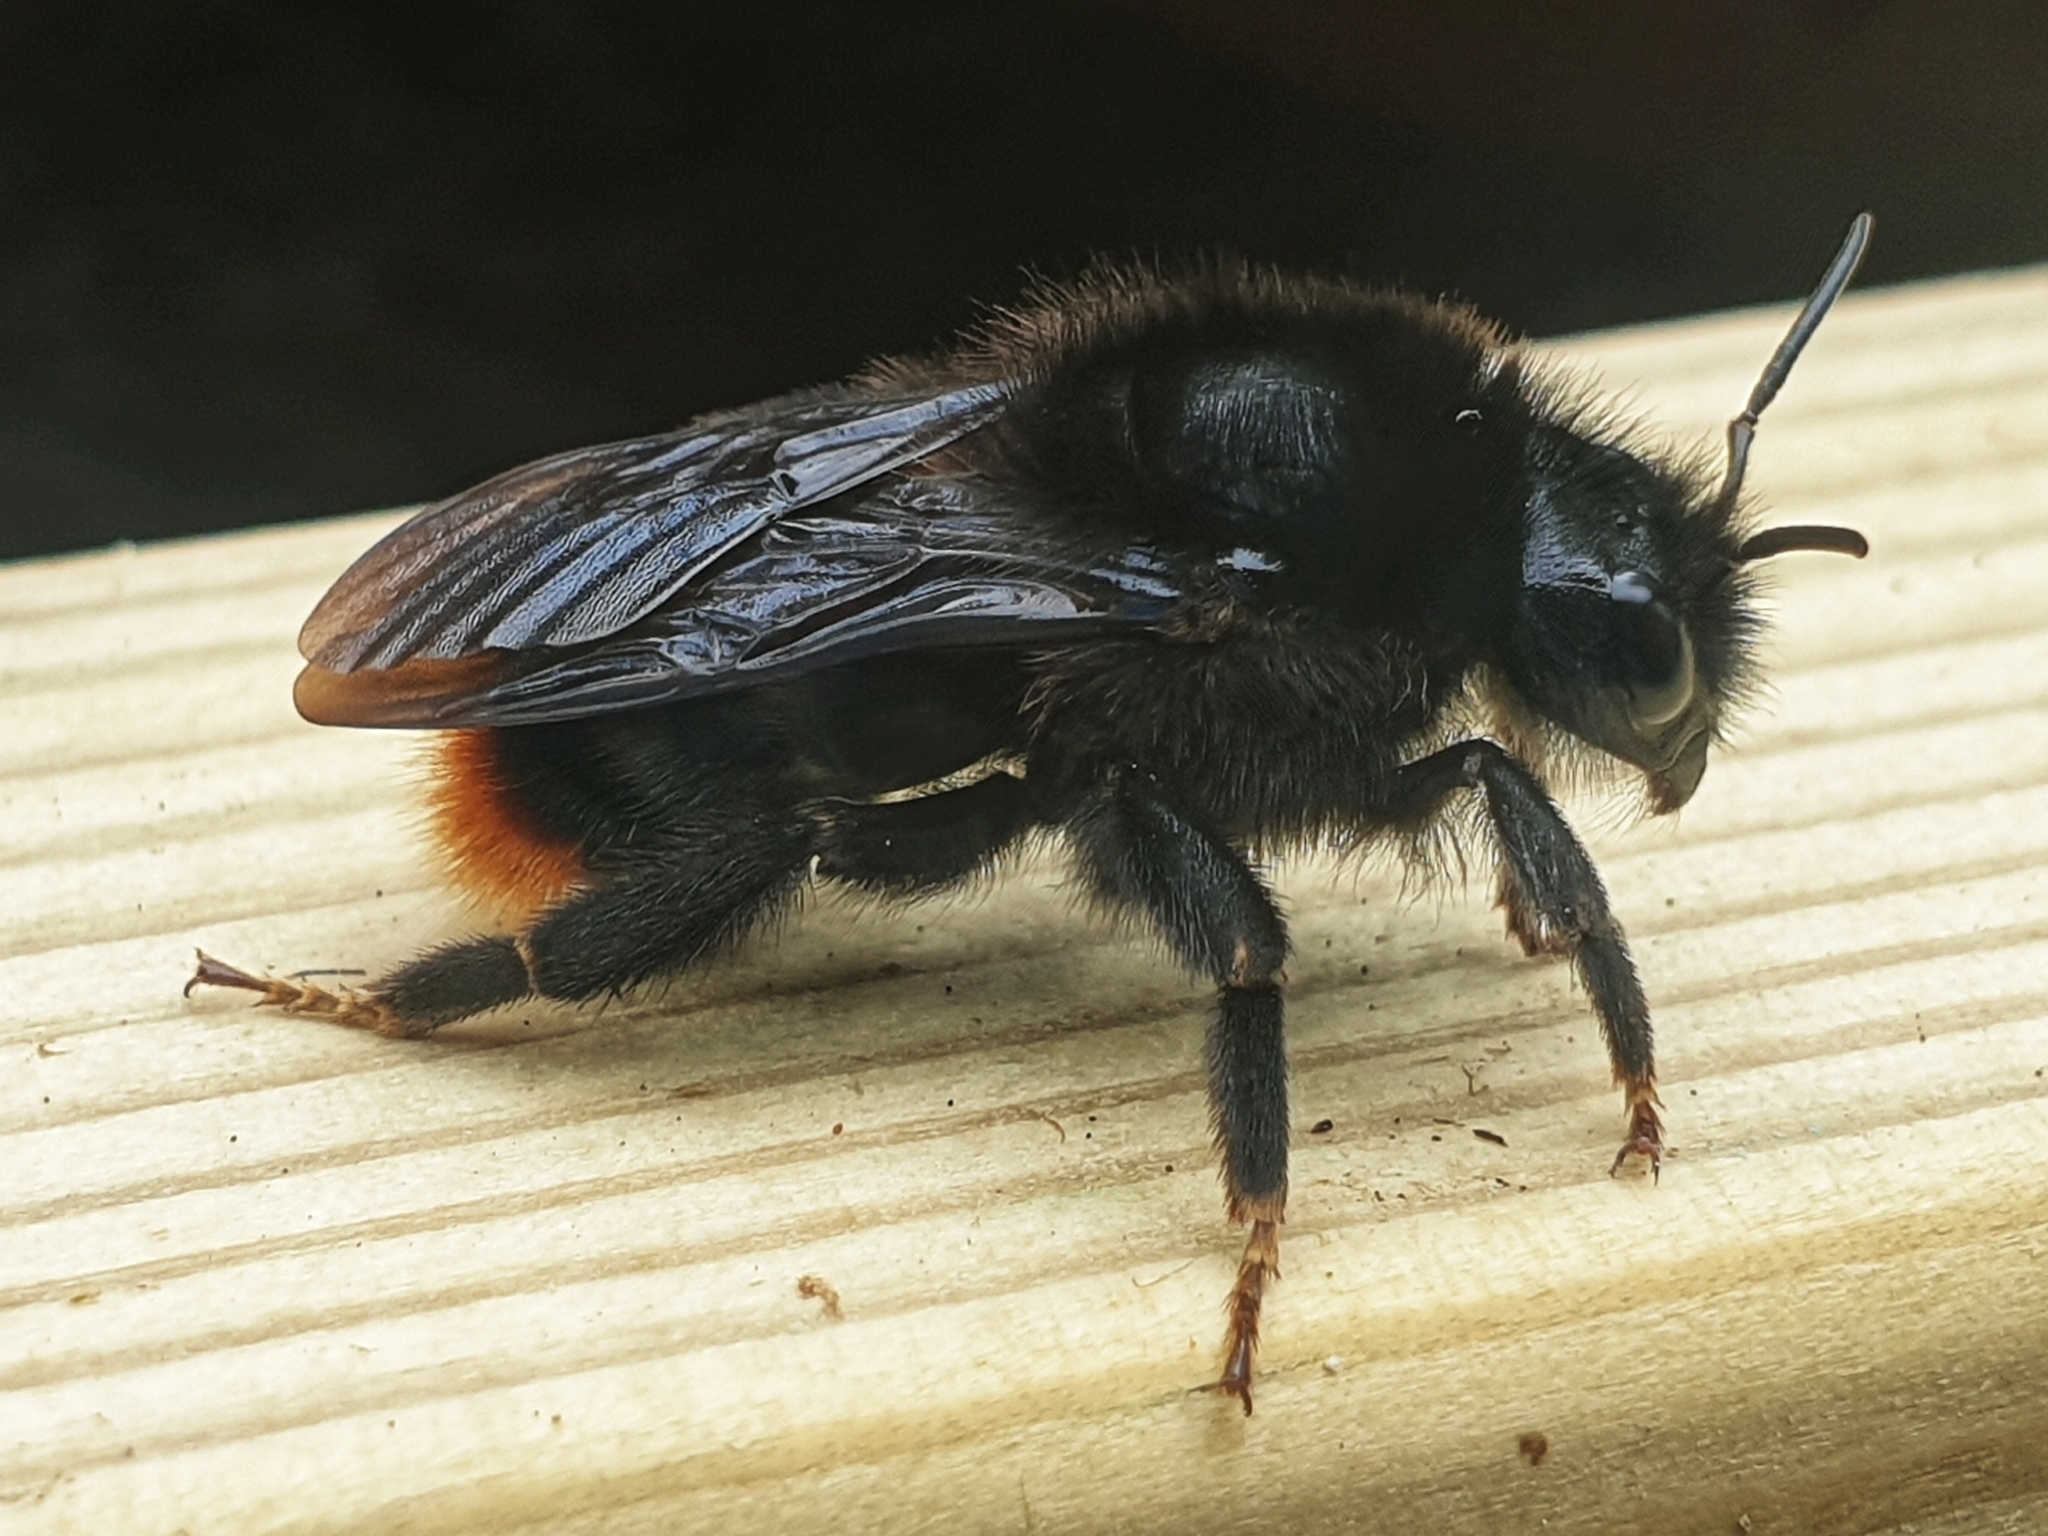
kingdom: Animalia
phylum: Arthropoda
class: Insecta
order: Hymenoptera
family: Apidae
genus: Bombus
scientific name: Bombus rupestris
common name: Hill cuckoo-bee
